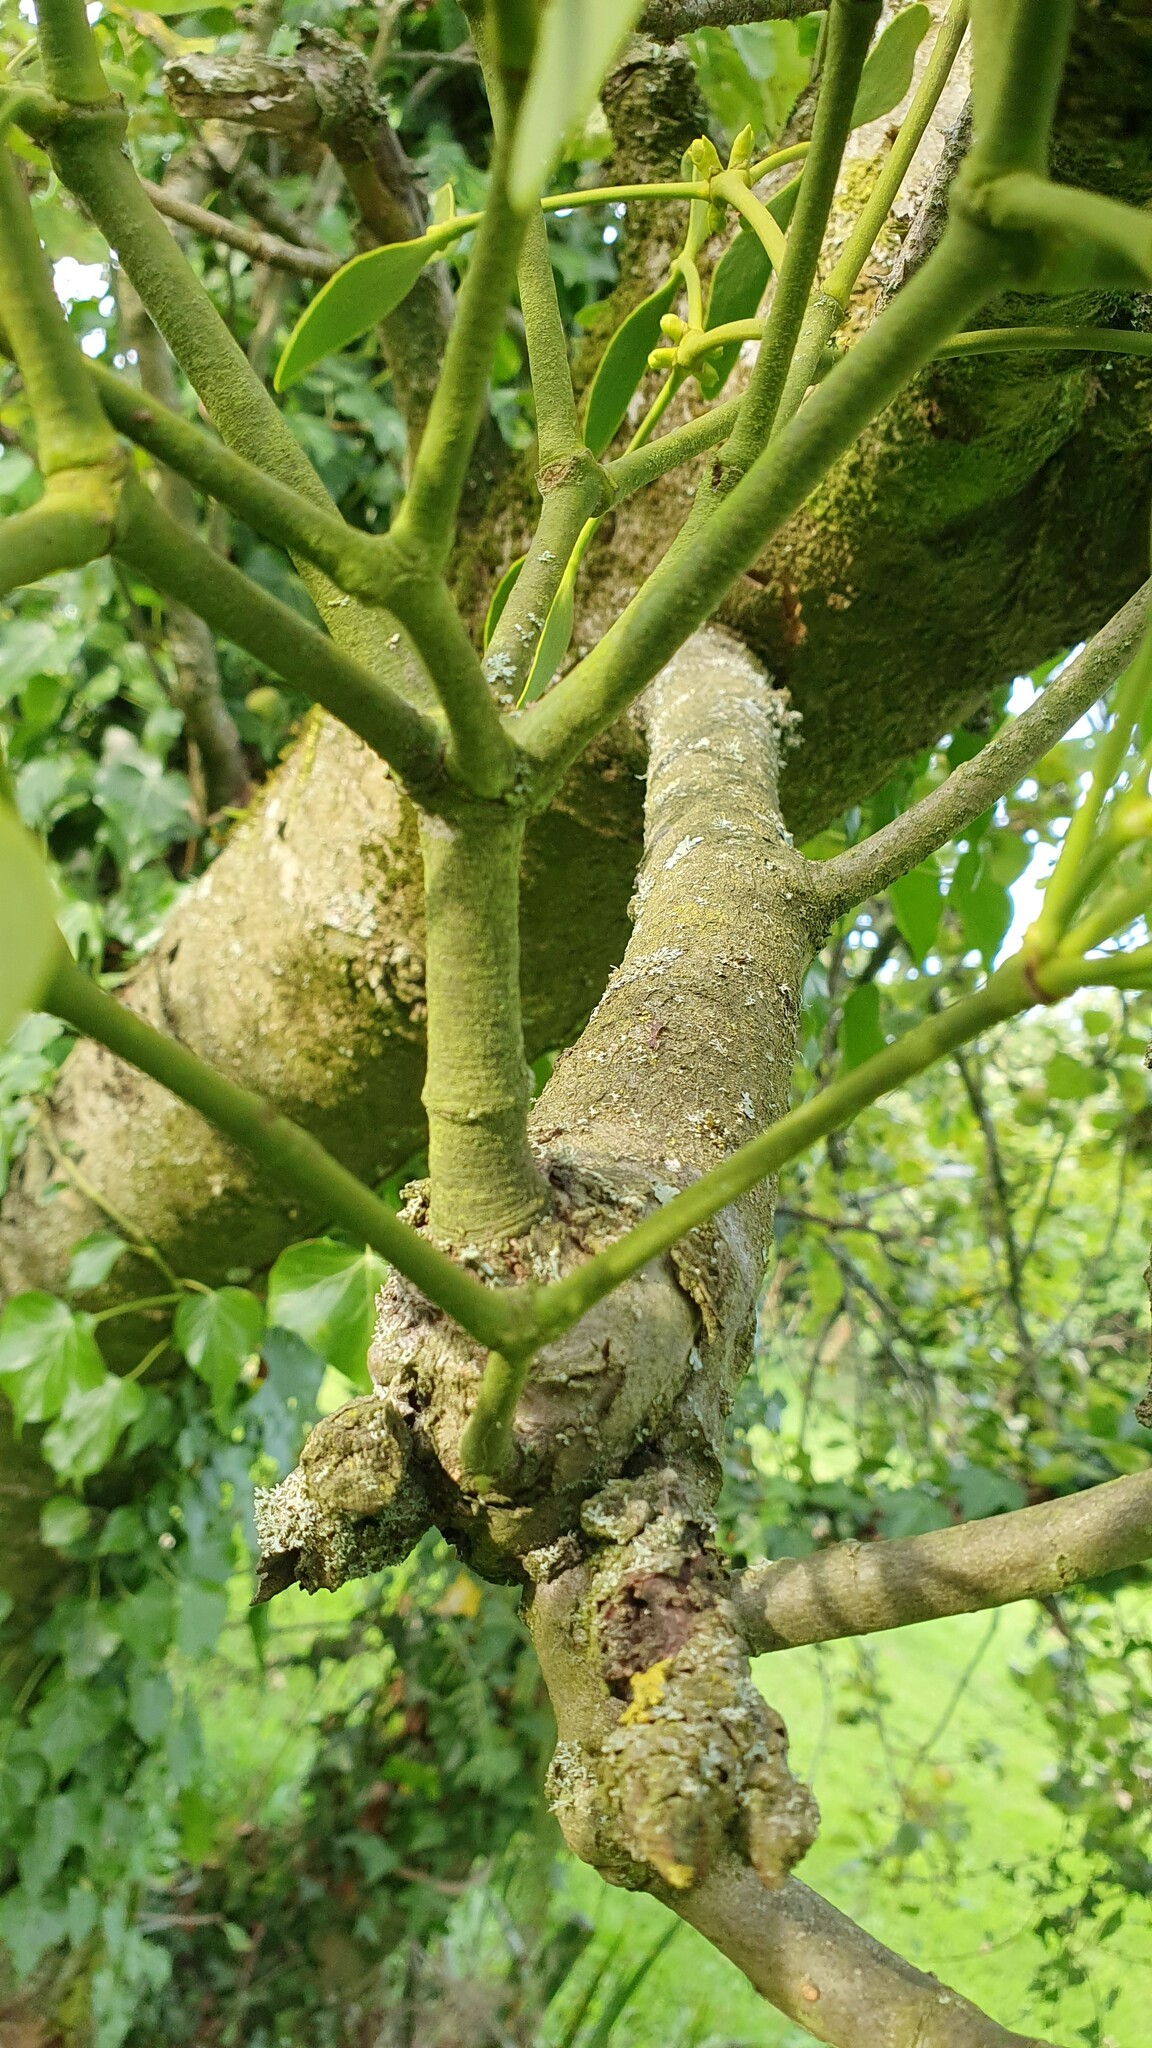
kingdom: Plantae
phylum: Tracheophyta
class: Magnoliopsida
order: Santalales
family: Viscaceae
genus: Viscum
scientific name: Viscum album
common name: Mistletoe
